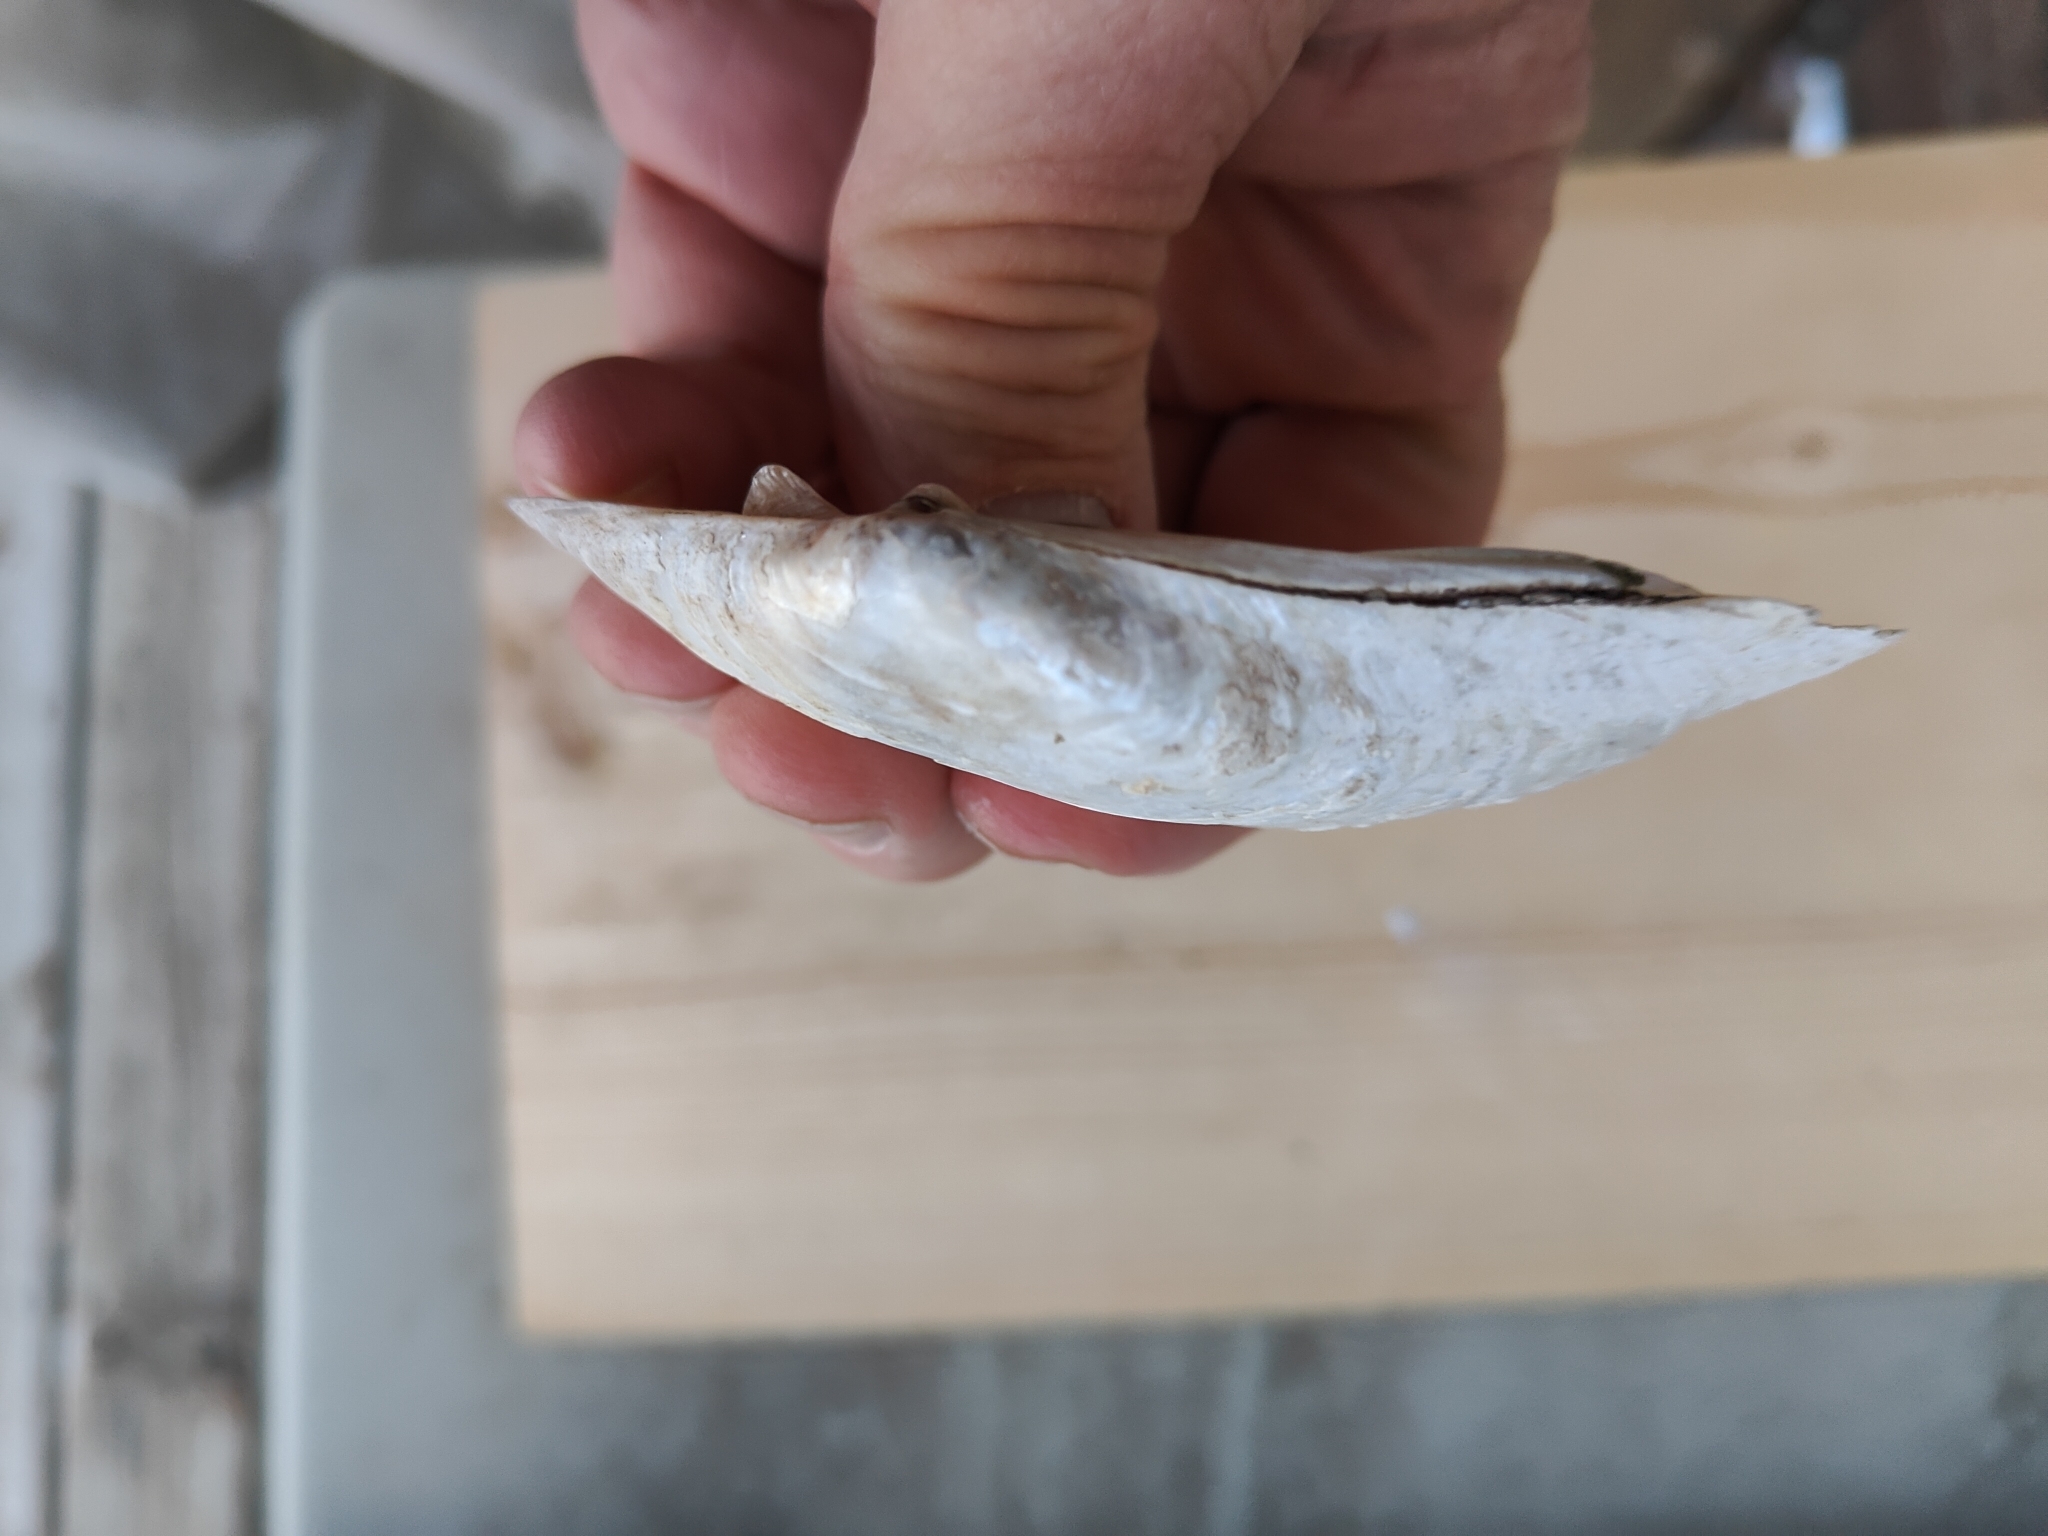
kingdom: Animalia
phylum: Mollusca
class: Bivalvia
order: Unionida
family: Unionidae
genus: Lampsilis
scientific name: Lampsilis siliquoidea
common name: Fatmucket
